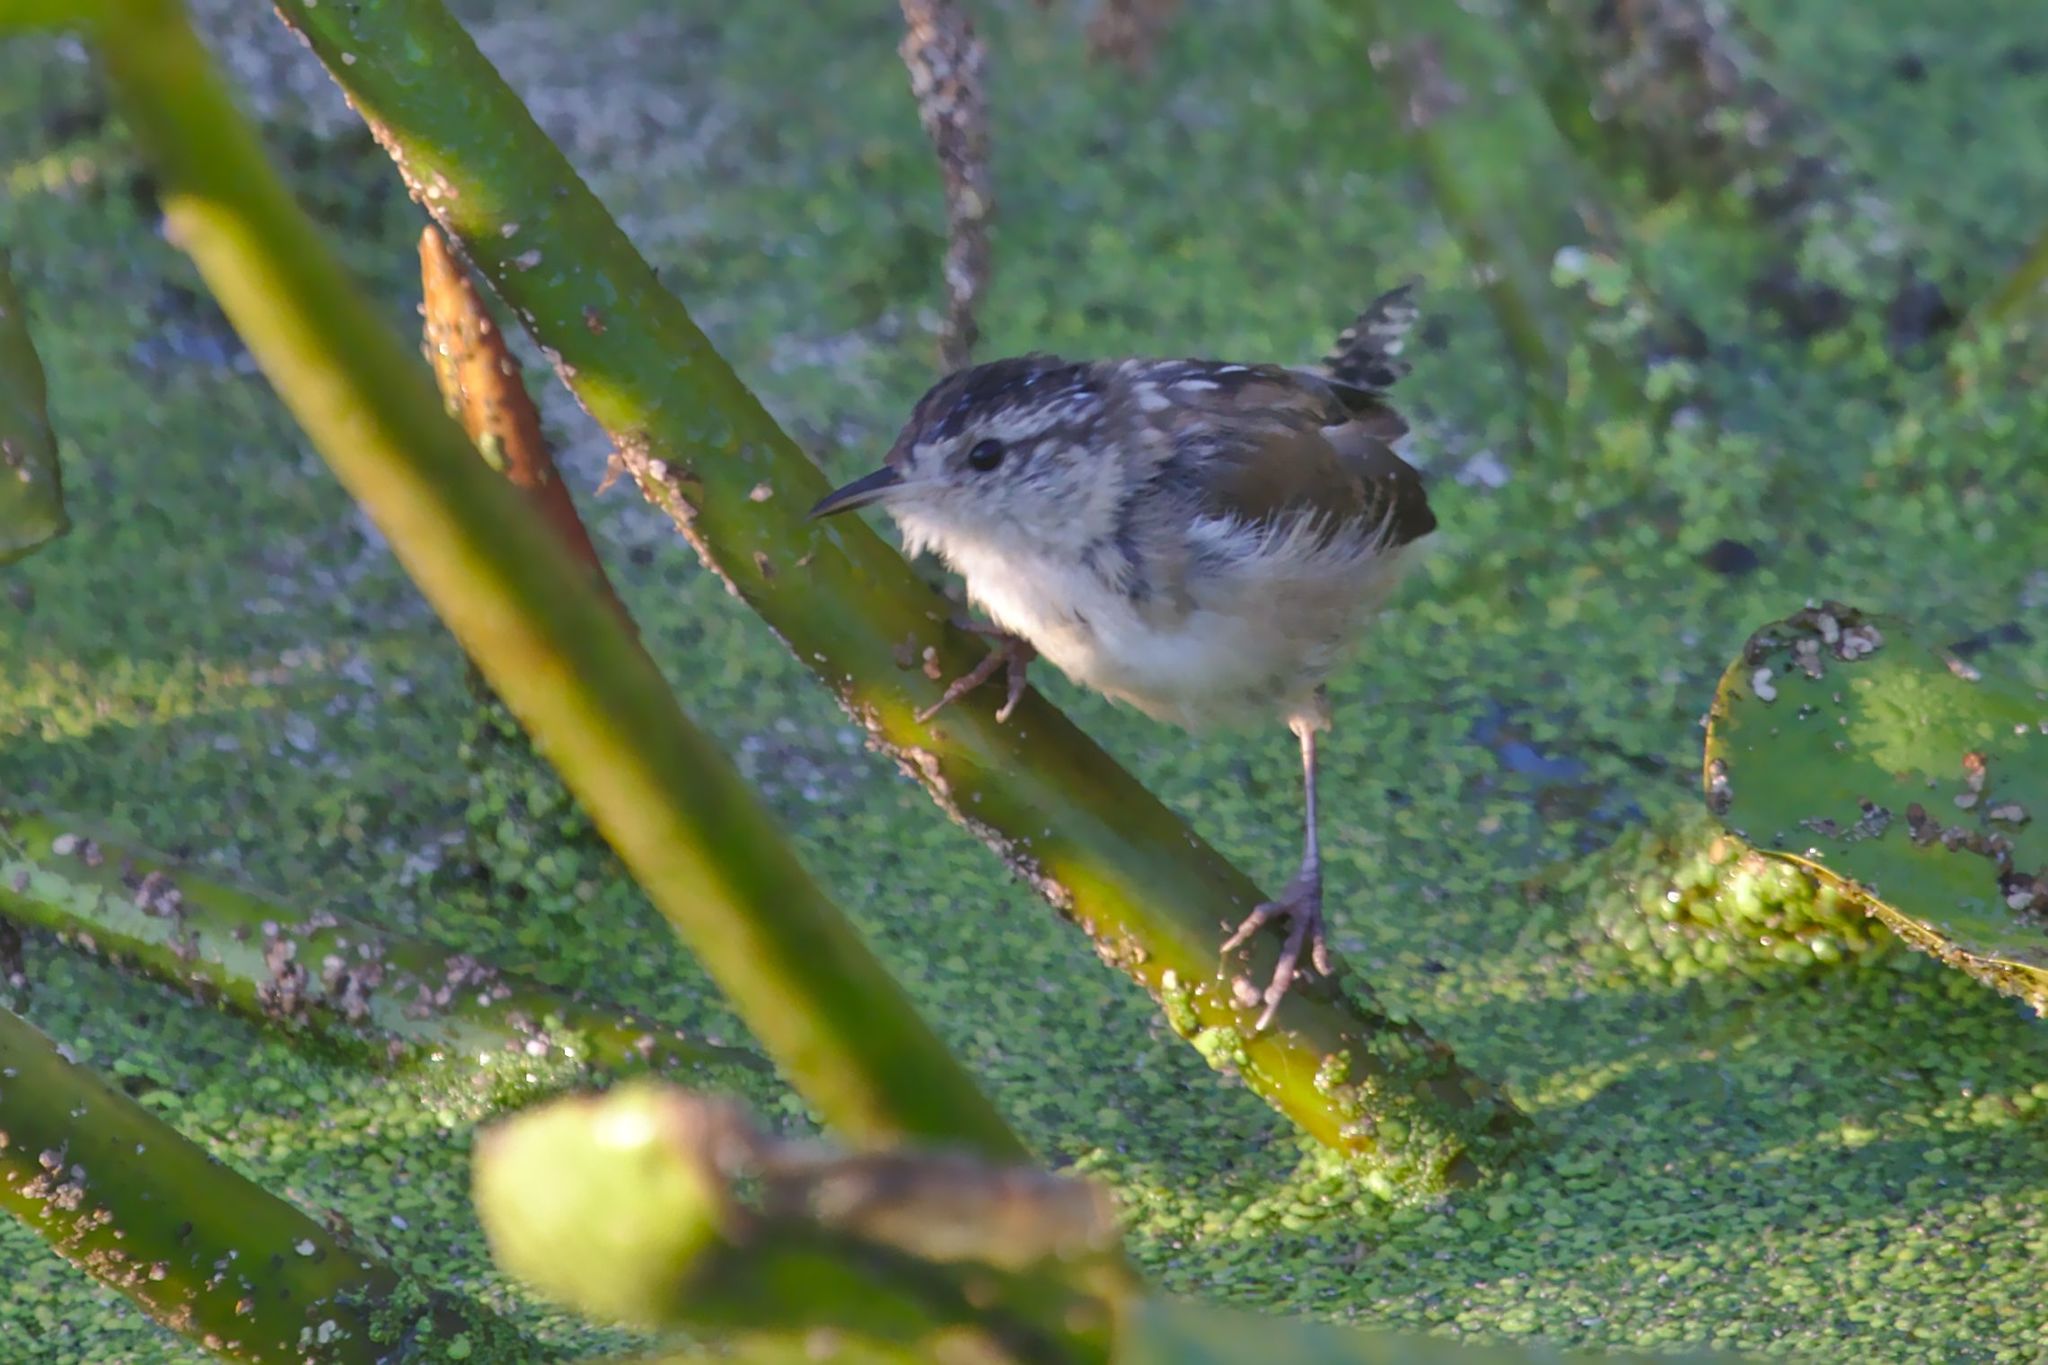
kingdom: Animalia
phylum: Chordata
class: Aves
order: Passeriformes
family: Troglodytidae
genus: Cistothorus
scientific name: Cistothorus palustris
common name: Marsh wren
